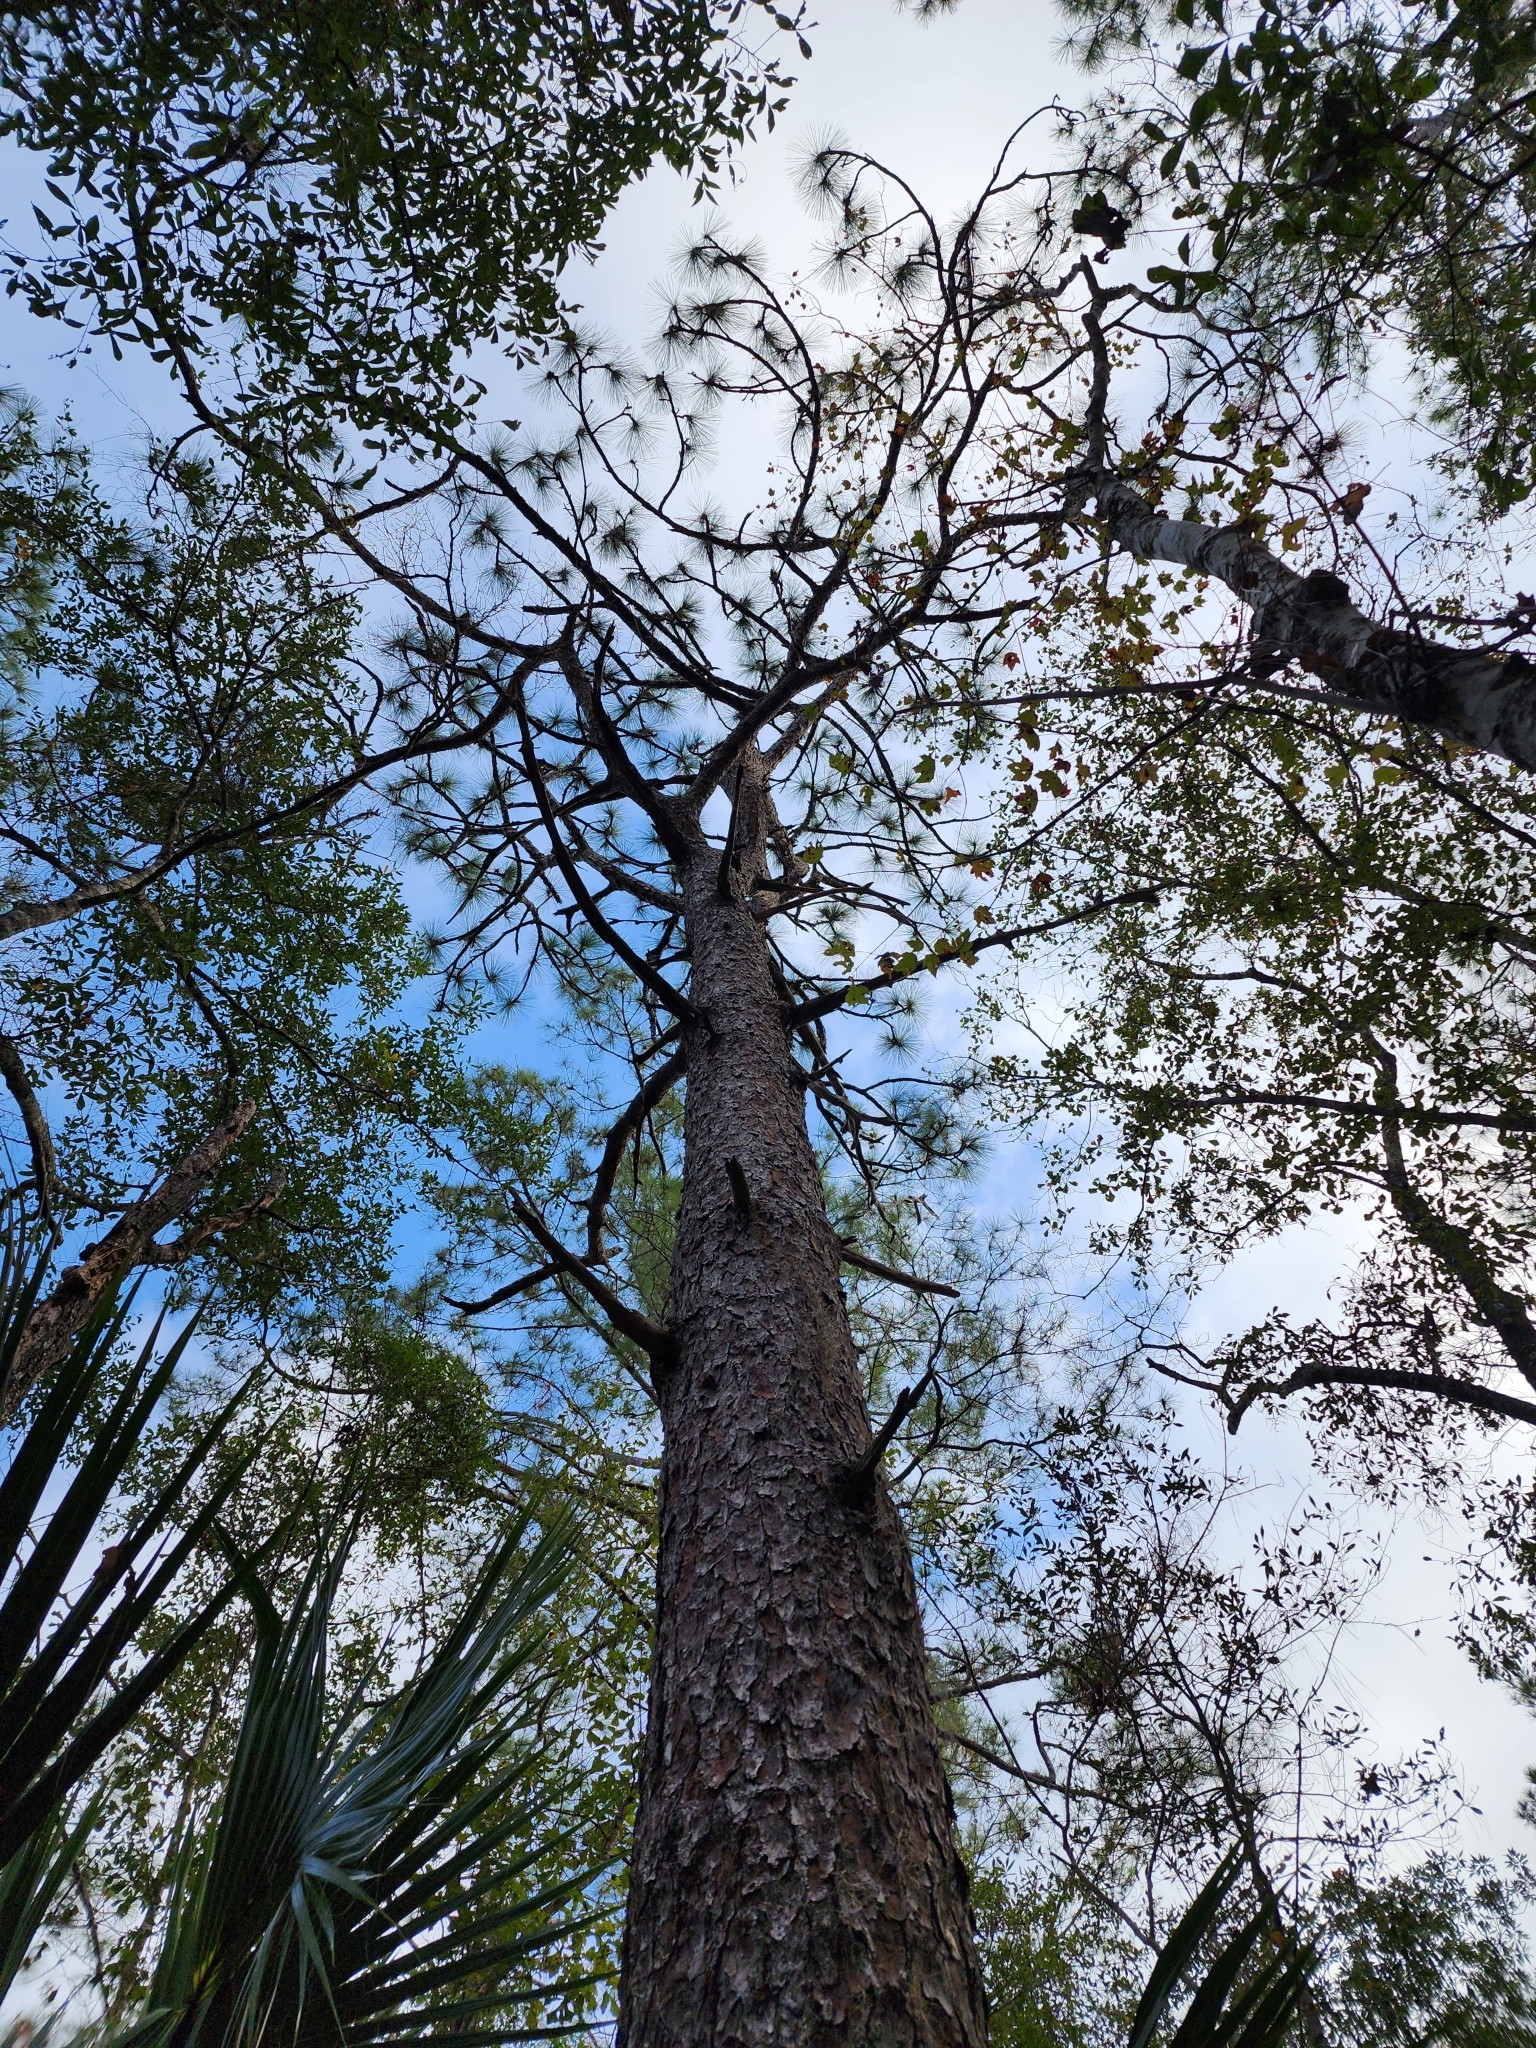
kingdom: Plantae
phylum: Tracheophyta
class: Pinopsida
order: Pinales
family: Pinaceae
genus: Pinus
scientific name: Pinus palustris
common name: Longleaf pine
